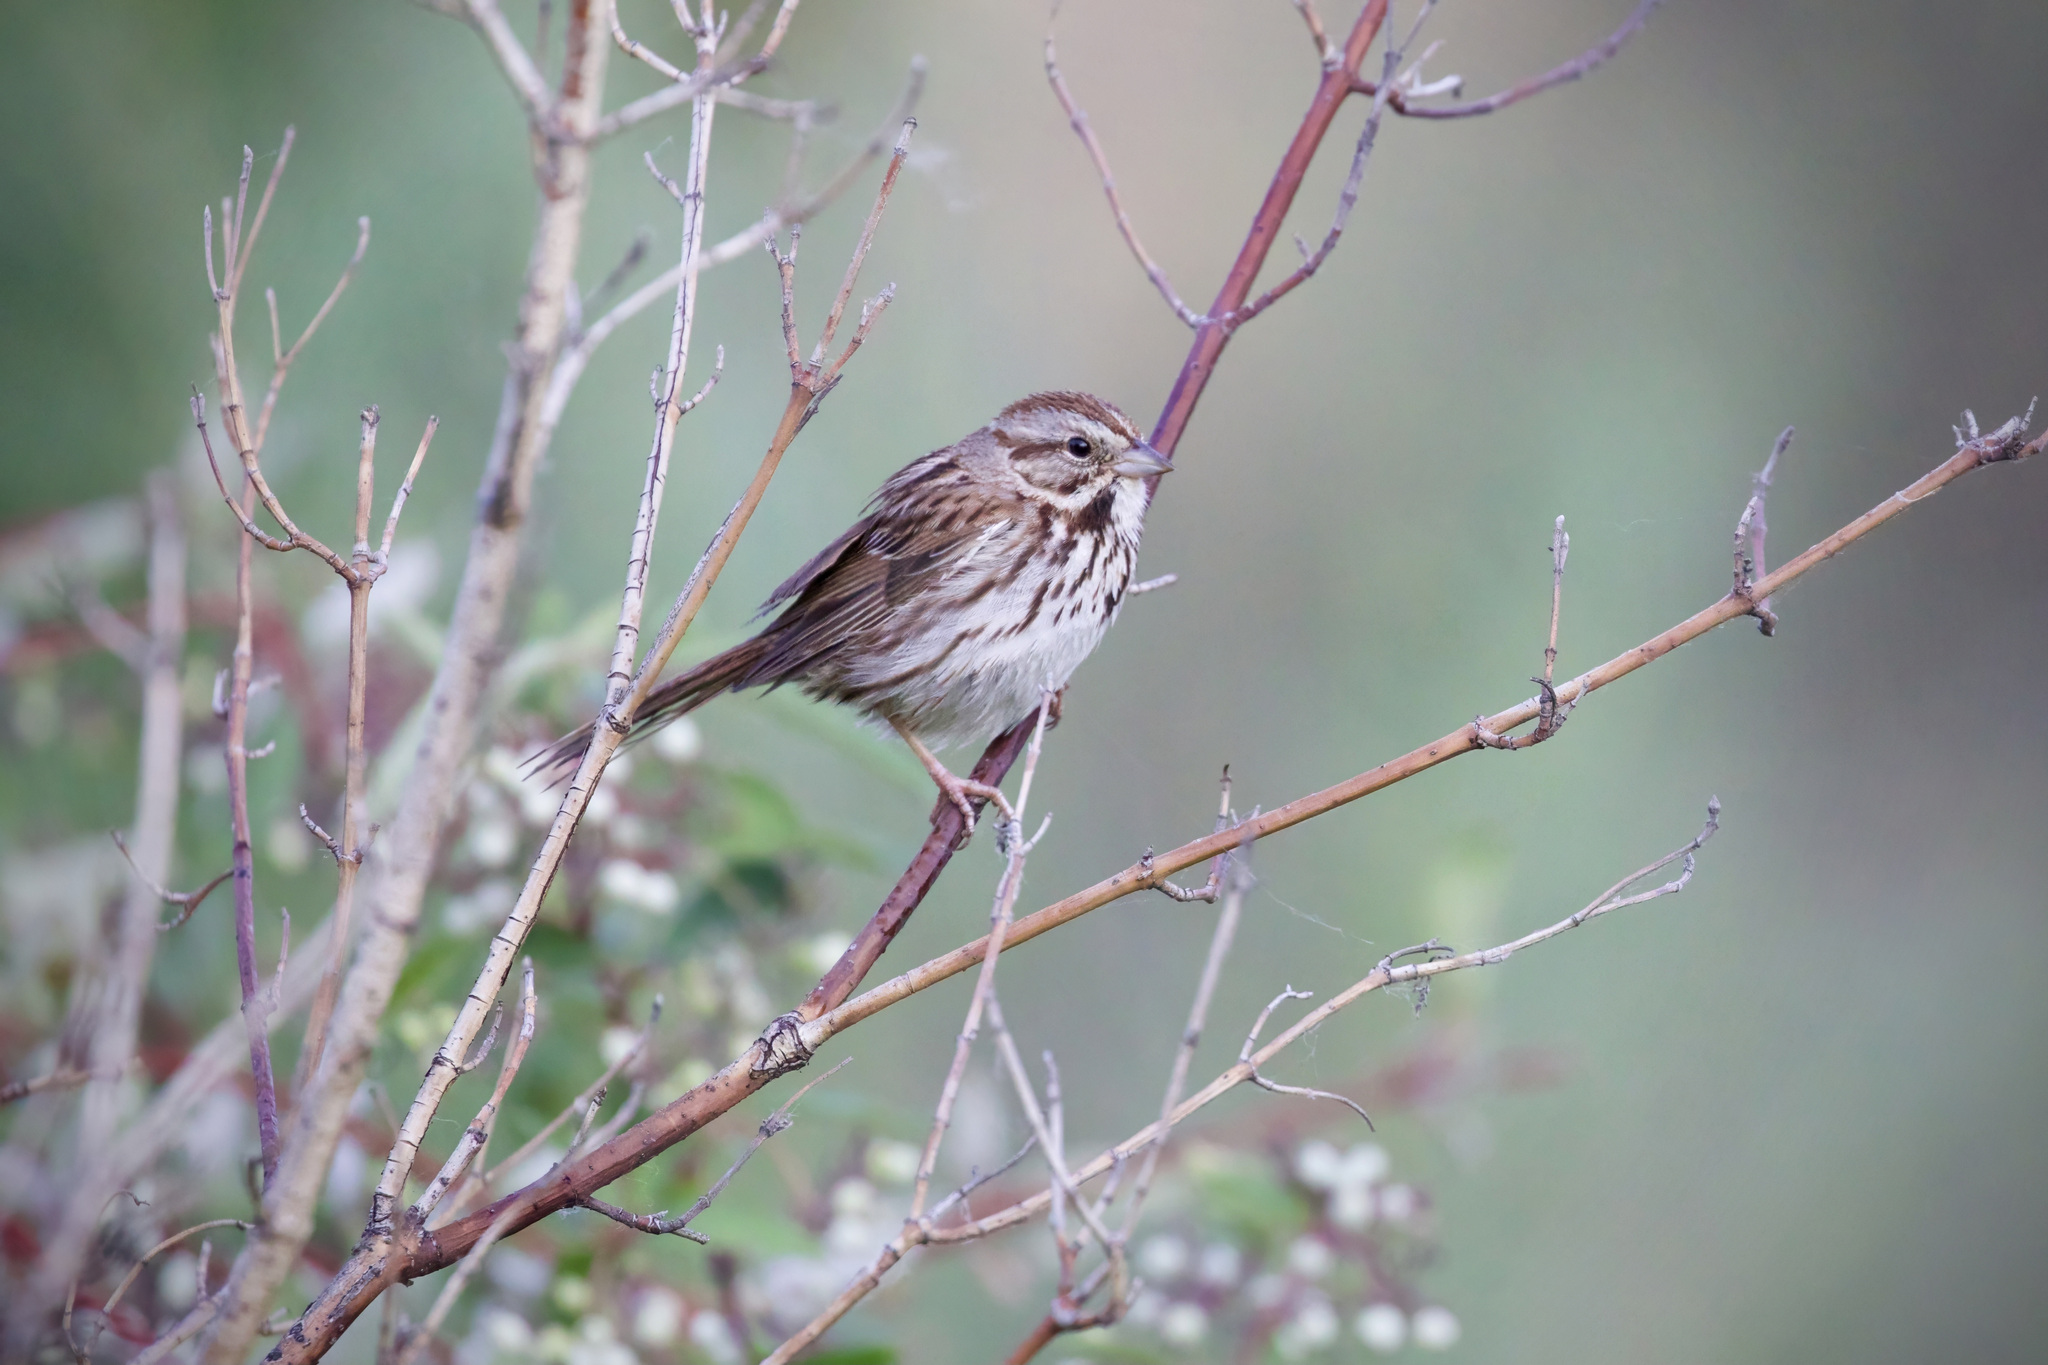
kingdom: Animalia
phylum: Chordata
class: Aves
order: Passeriformes
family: Passerellidae
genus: Melospiza
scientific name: Melospiza melodia
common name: Song sparrow
